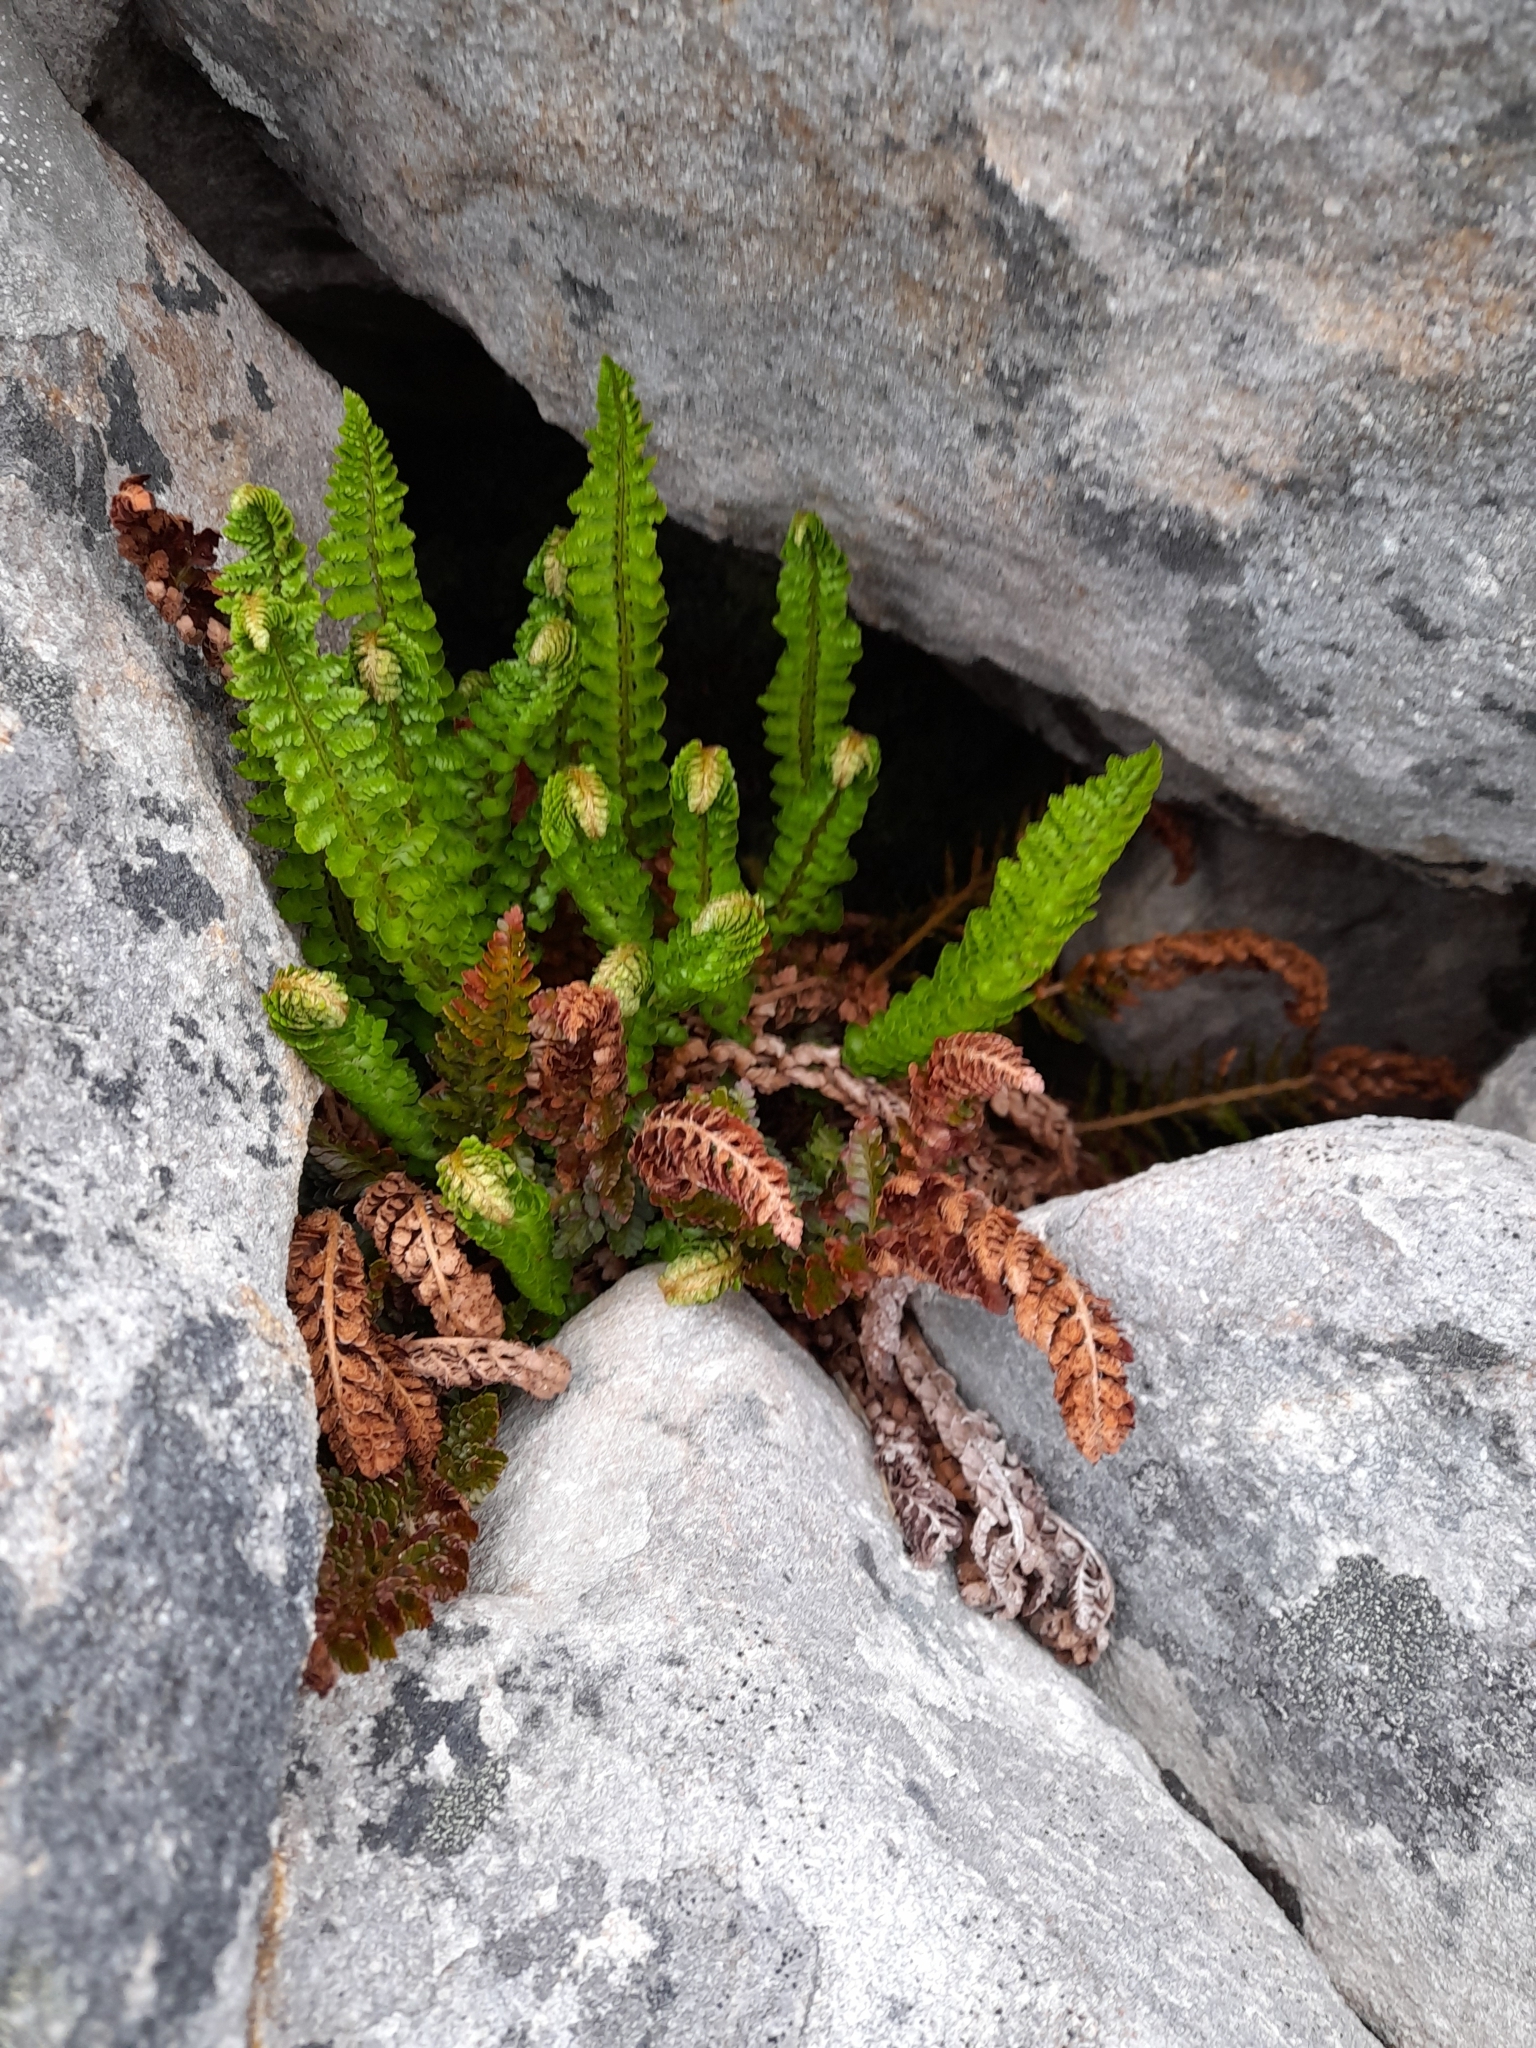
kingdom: Plantae
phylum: Tracheophyta
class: Polypodiopsida
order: Polypodiales
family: Dryopteridaceae
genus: Polystichum
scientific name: Polystichum mohrioides
